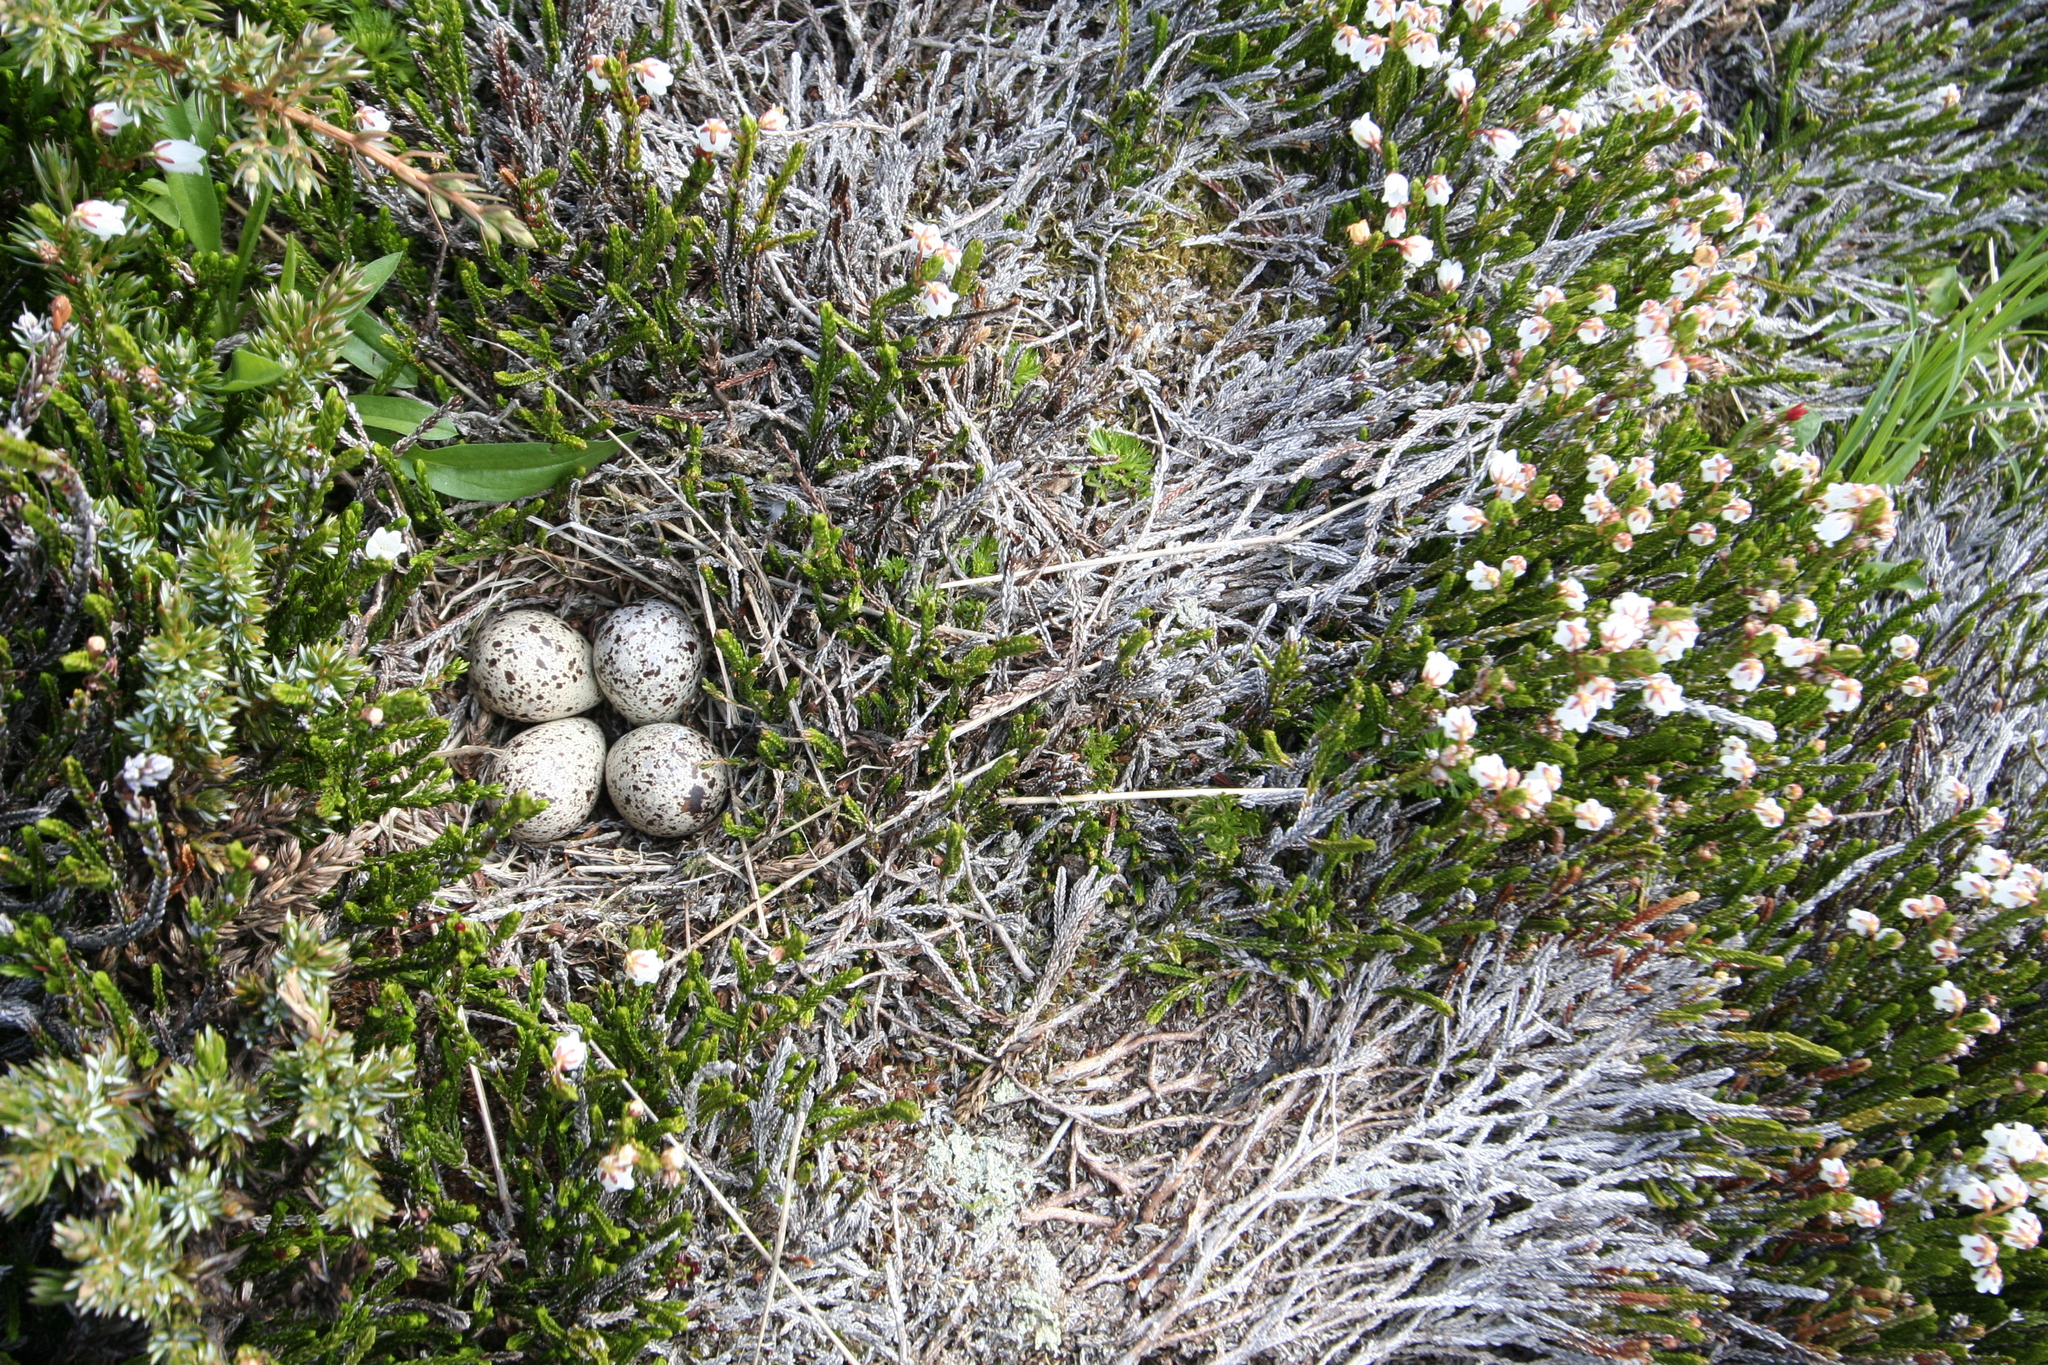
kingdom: Animalia
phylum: Chordata
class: Aves
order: Charadriiformes
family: Scolopacidae
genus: Actitis
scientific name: Actitis macularius
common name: Spotted sandpiper
